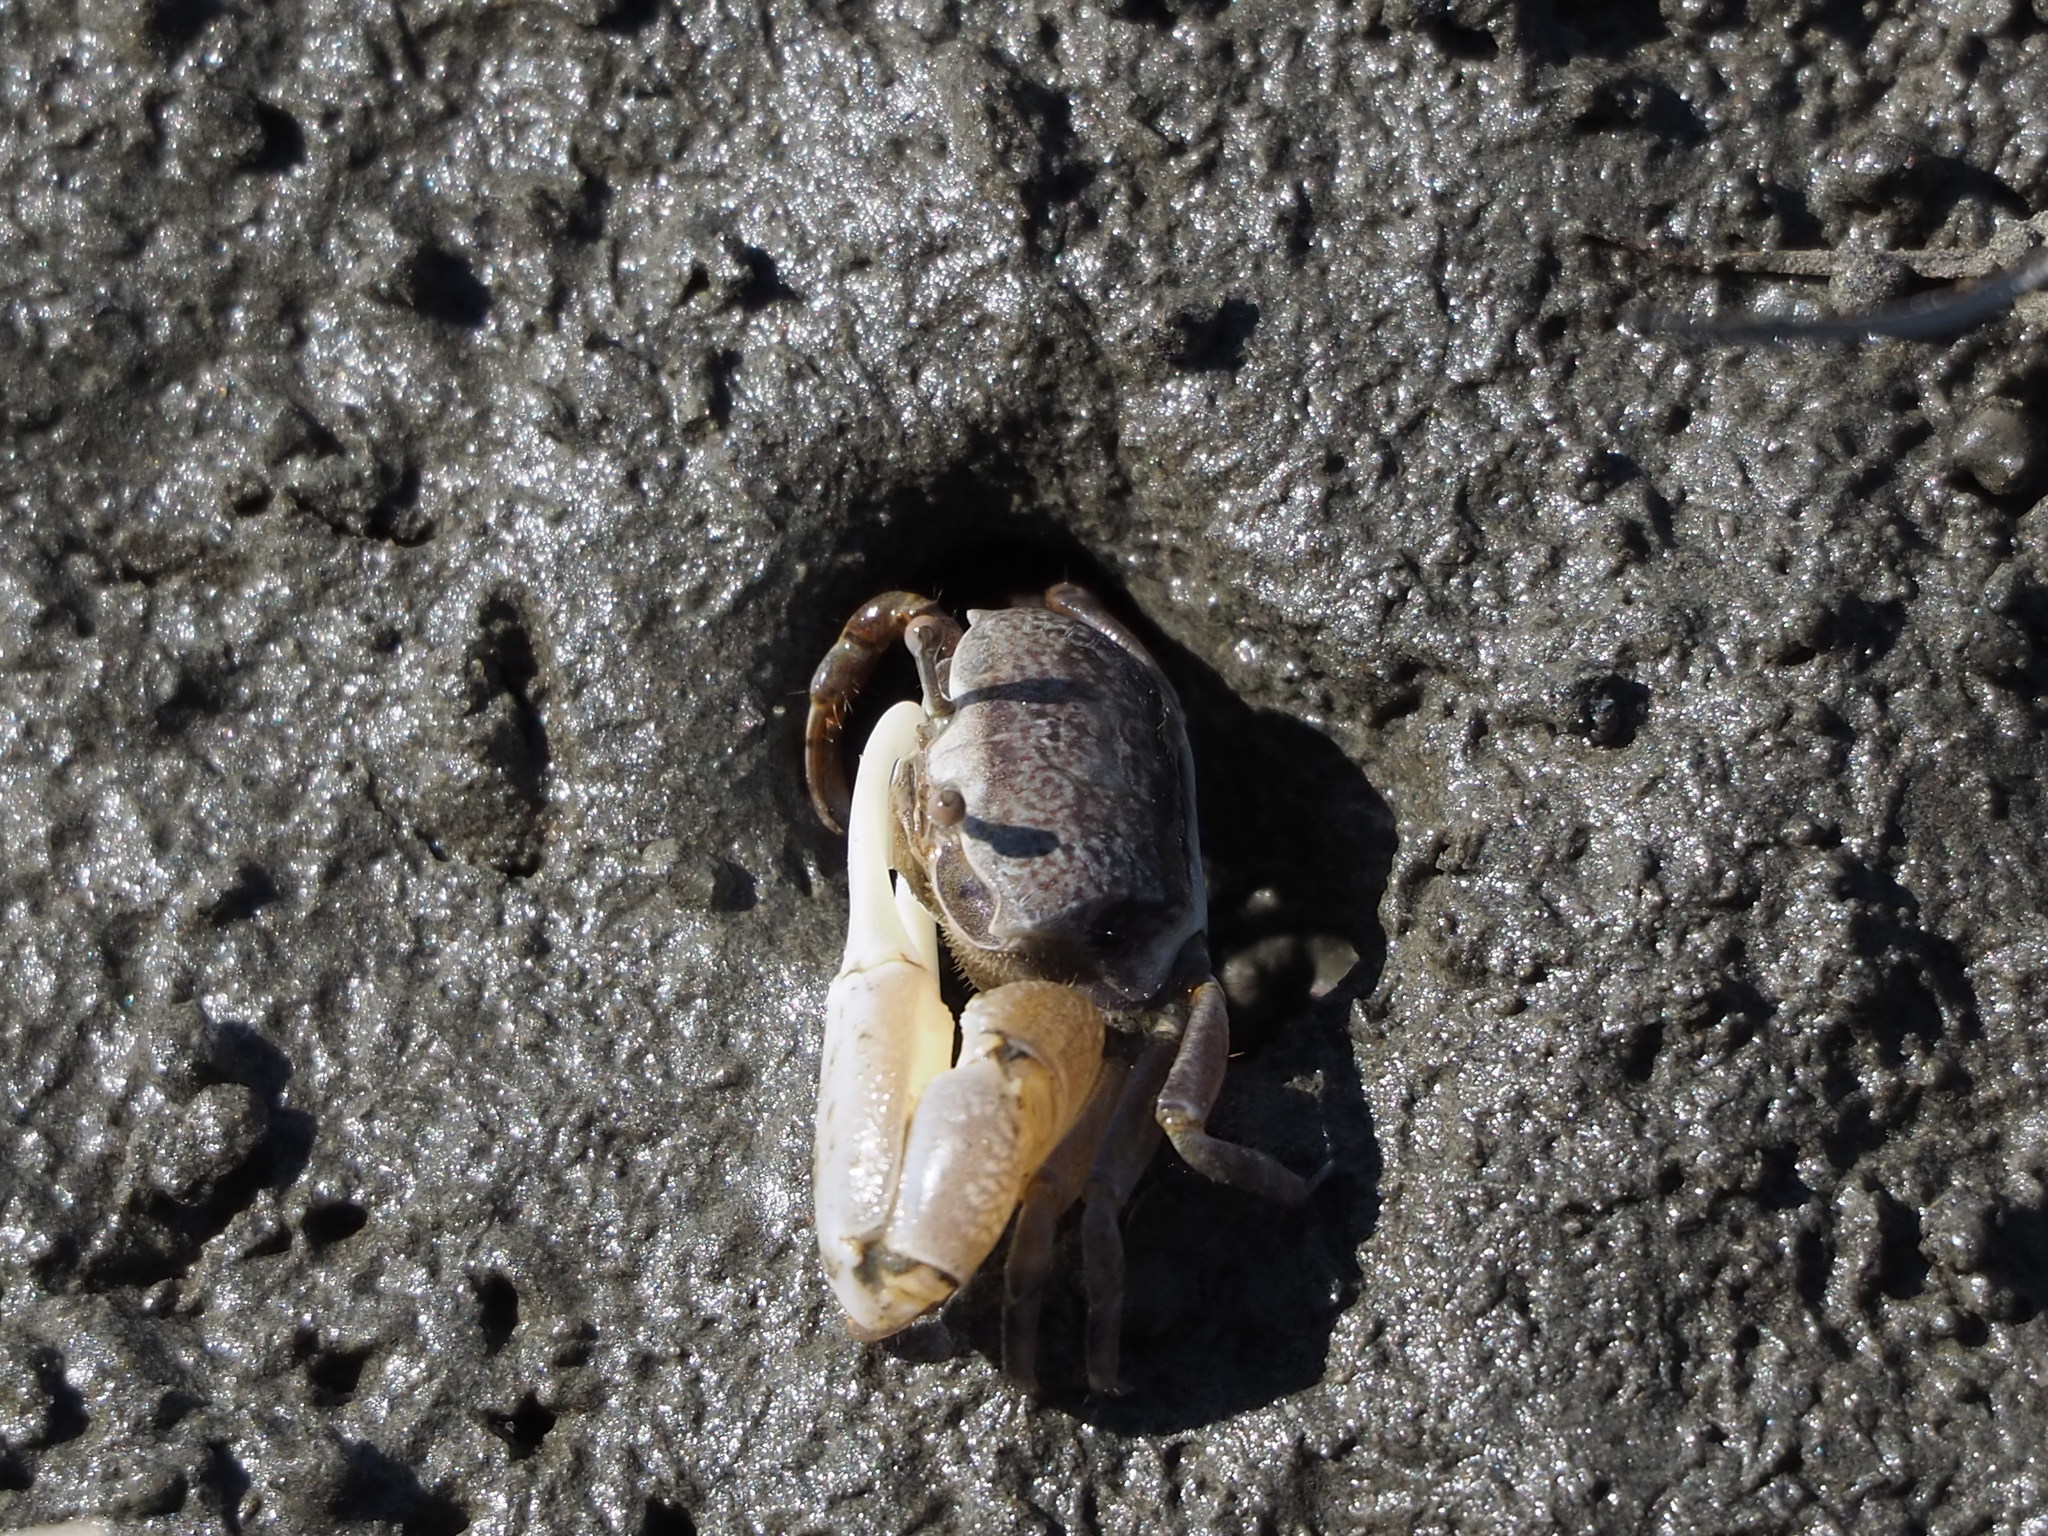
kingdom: Animalia
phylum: Arthropoda
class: Malacostraca
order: Decapoda
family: Ocypodidae
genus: Austruca
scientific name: Austruca lactea
